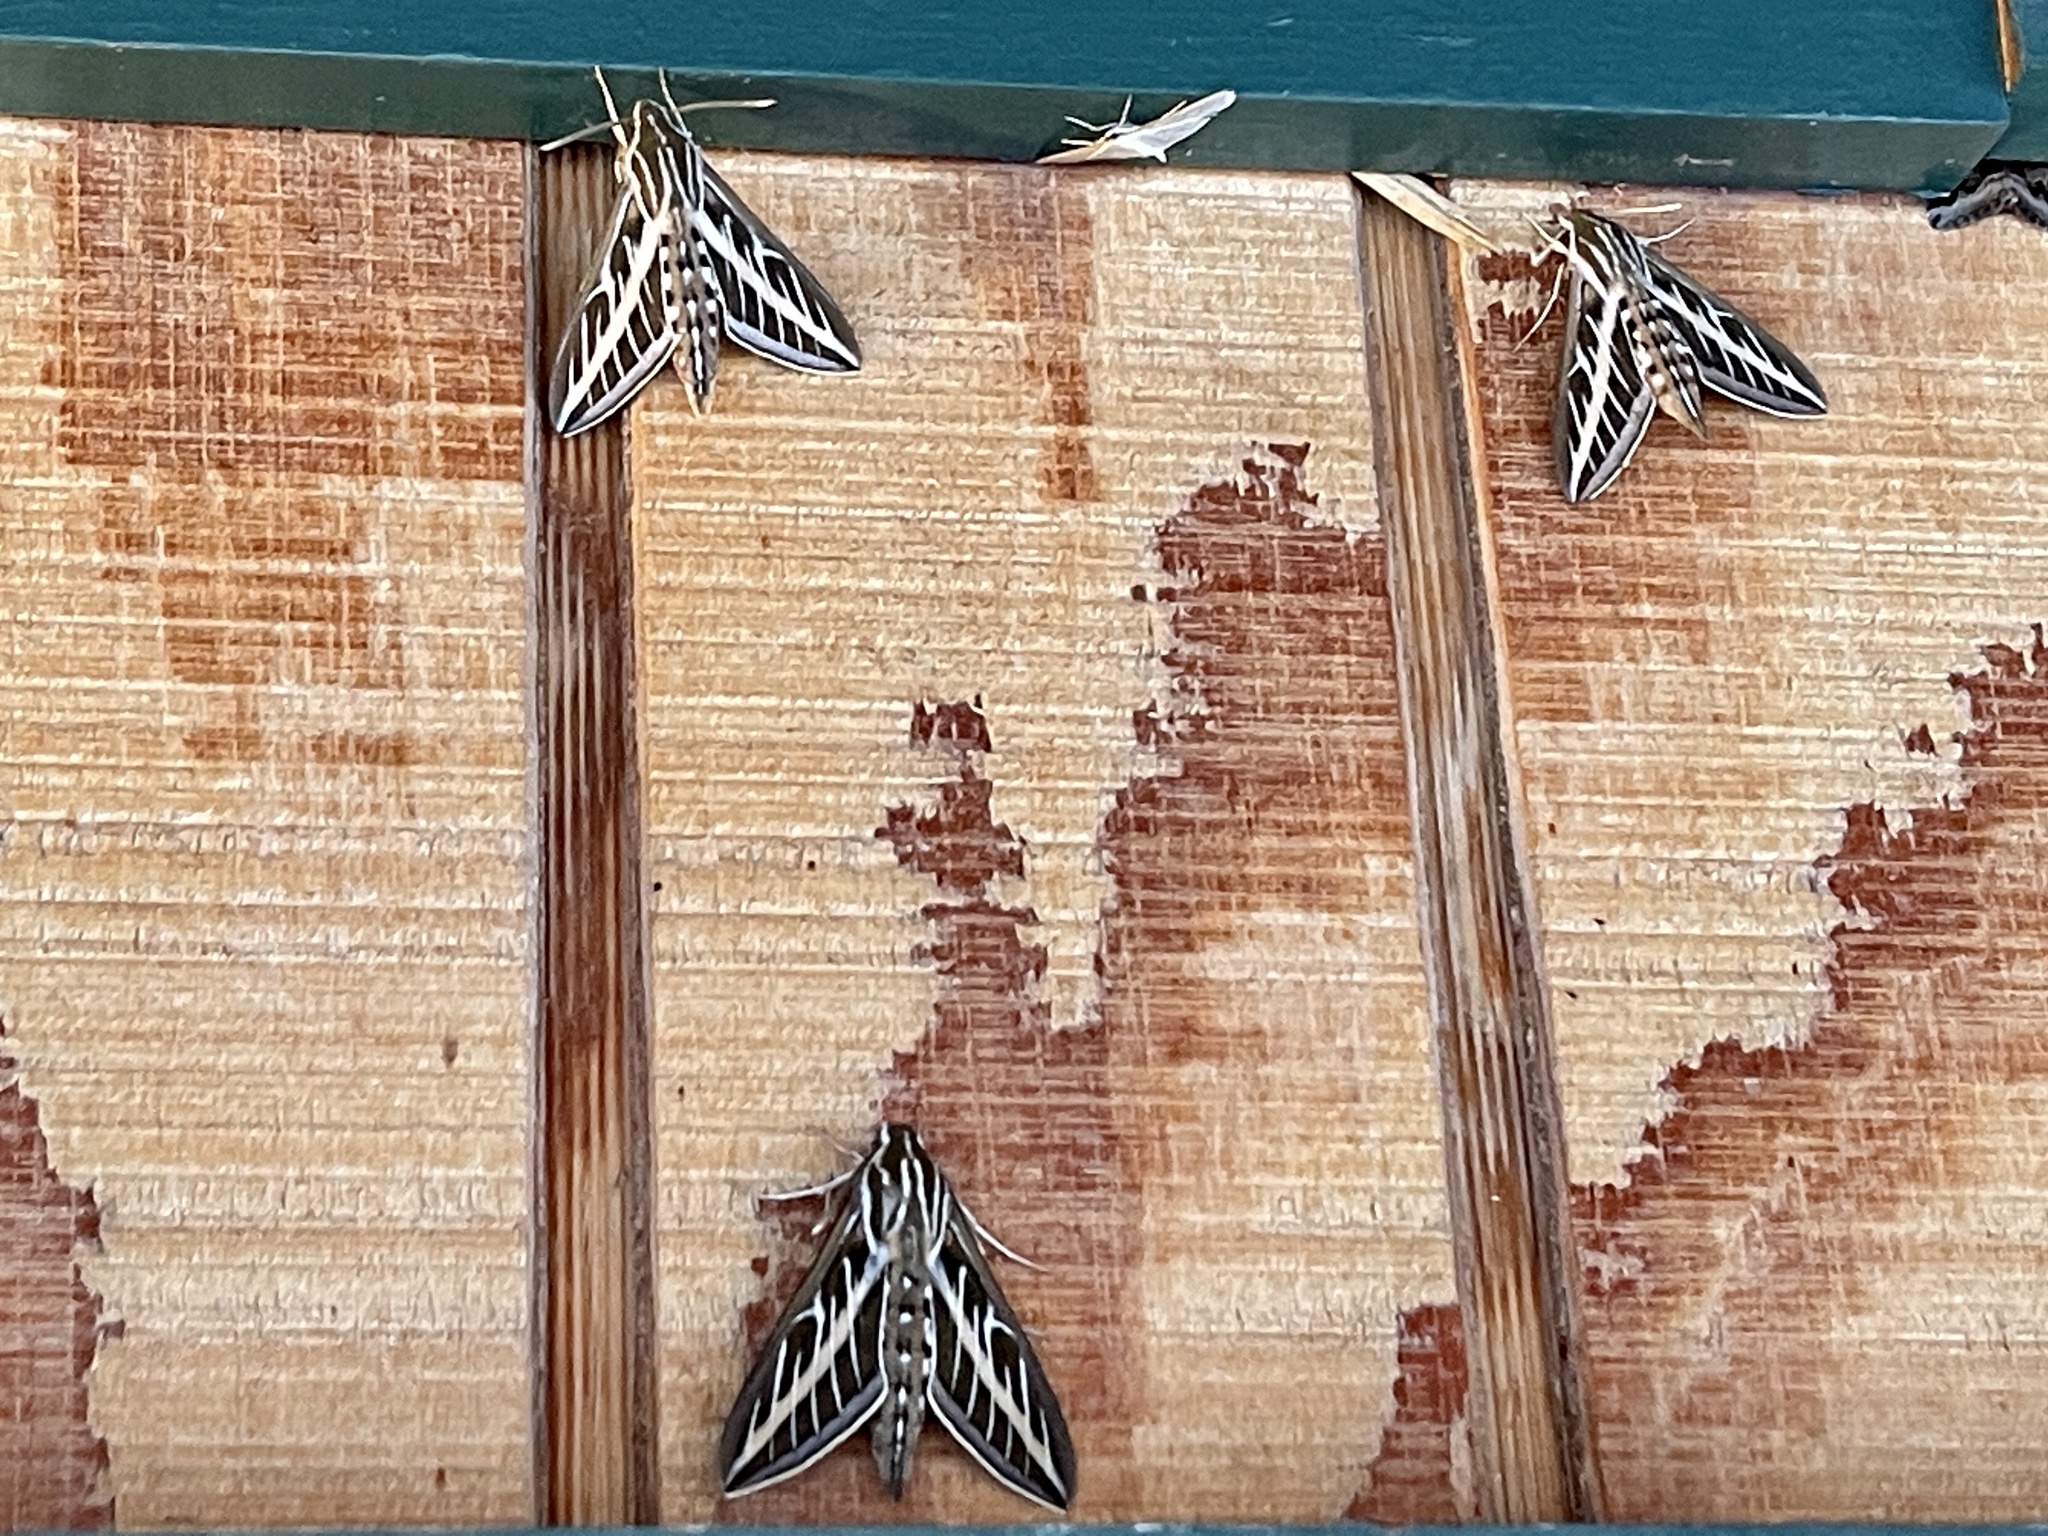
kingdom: Animalia
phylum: Arthropoda
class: Insecta
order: Lepidoptera
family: Sphingidae
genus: Hyles
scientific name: Hyles lineata
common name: White-lined sphinx
